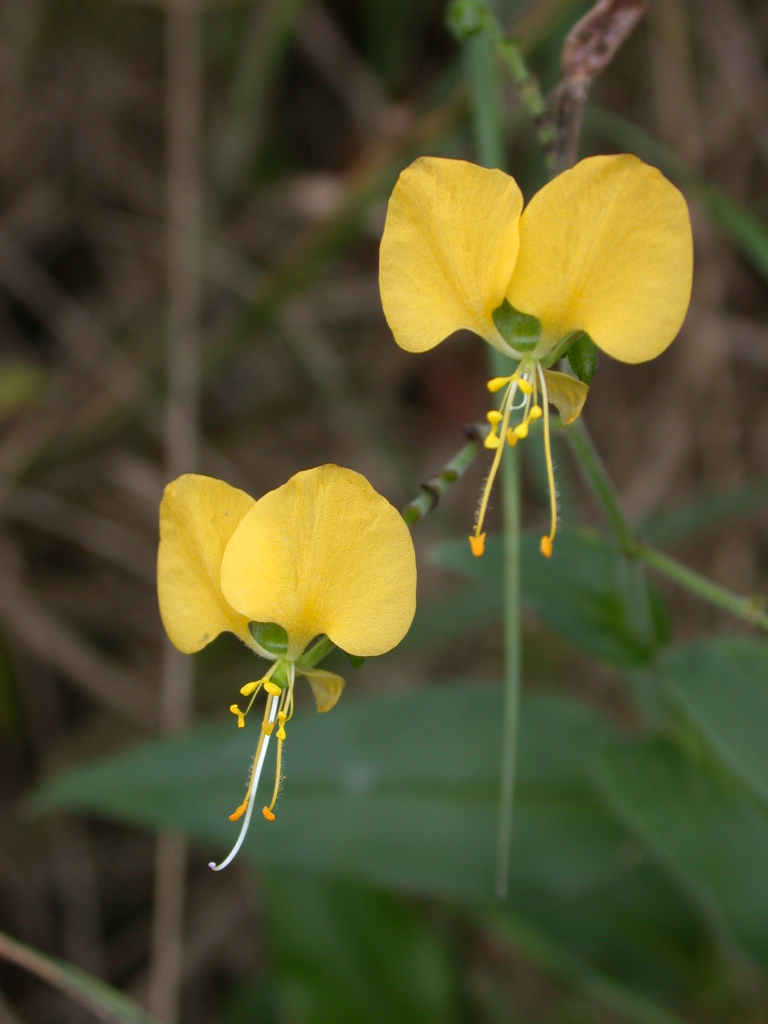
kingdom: Plantae
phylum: Tracheophyta
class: Liliopsida
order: Commelinales
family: Commelinaceae
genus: Aneilema
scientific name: Aneilema aequinoctiale
